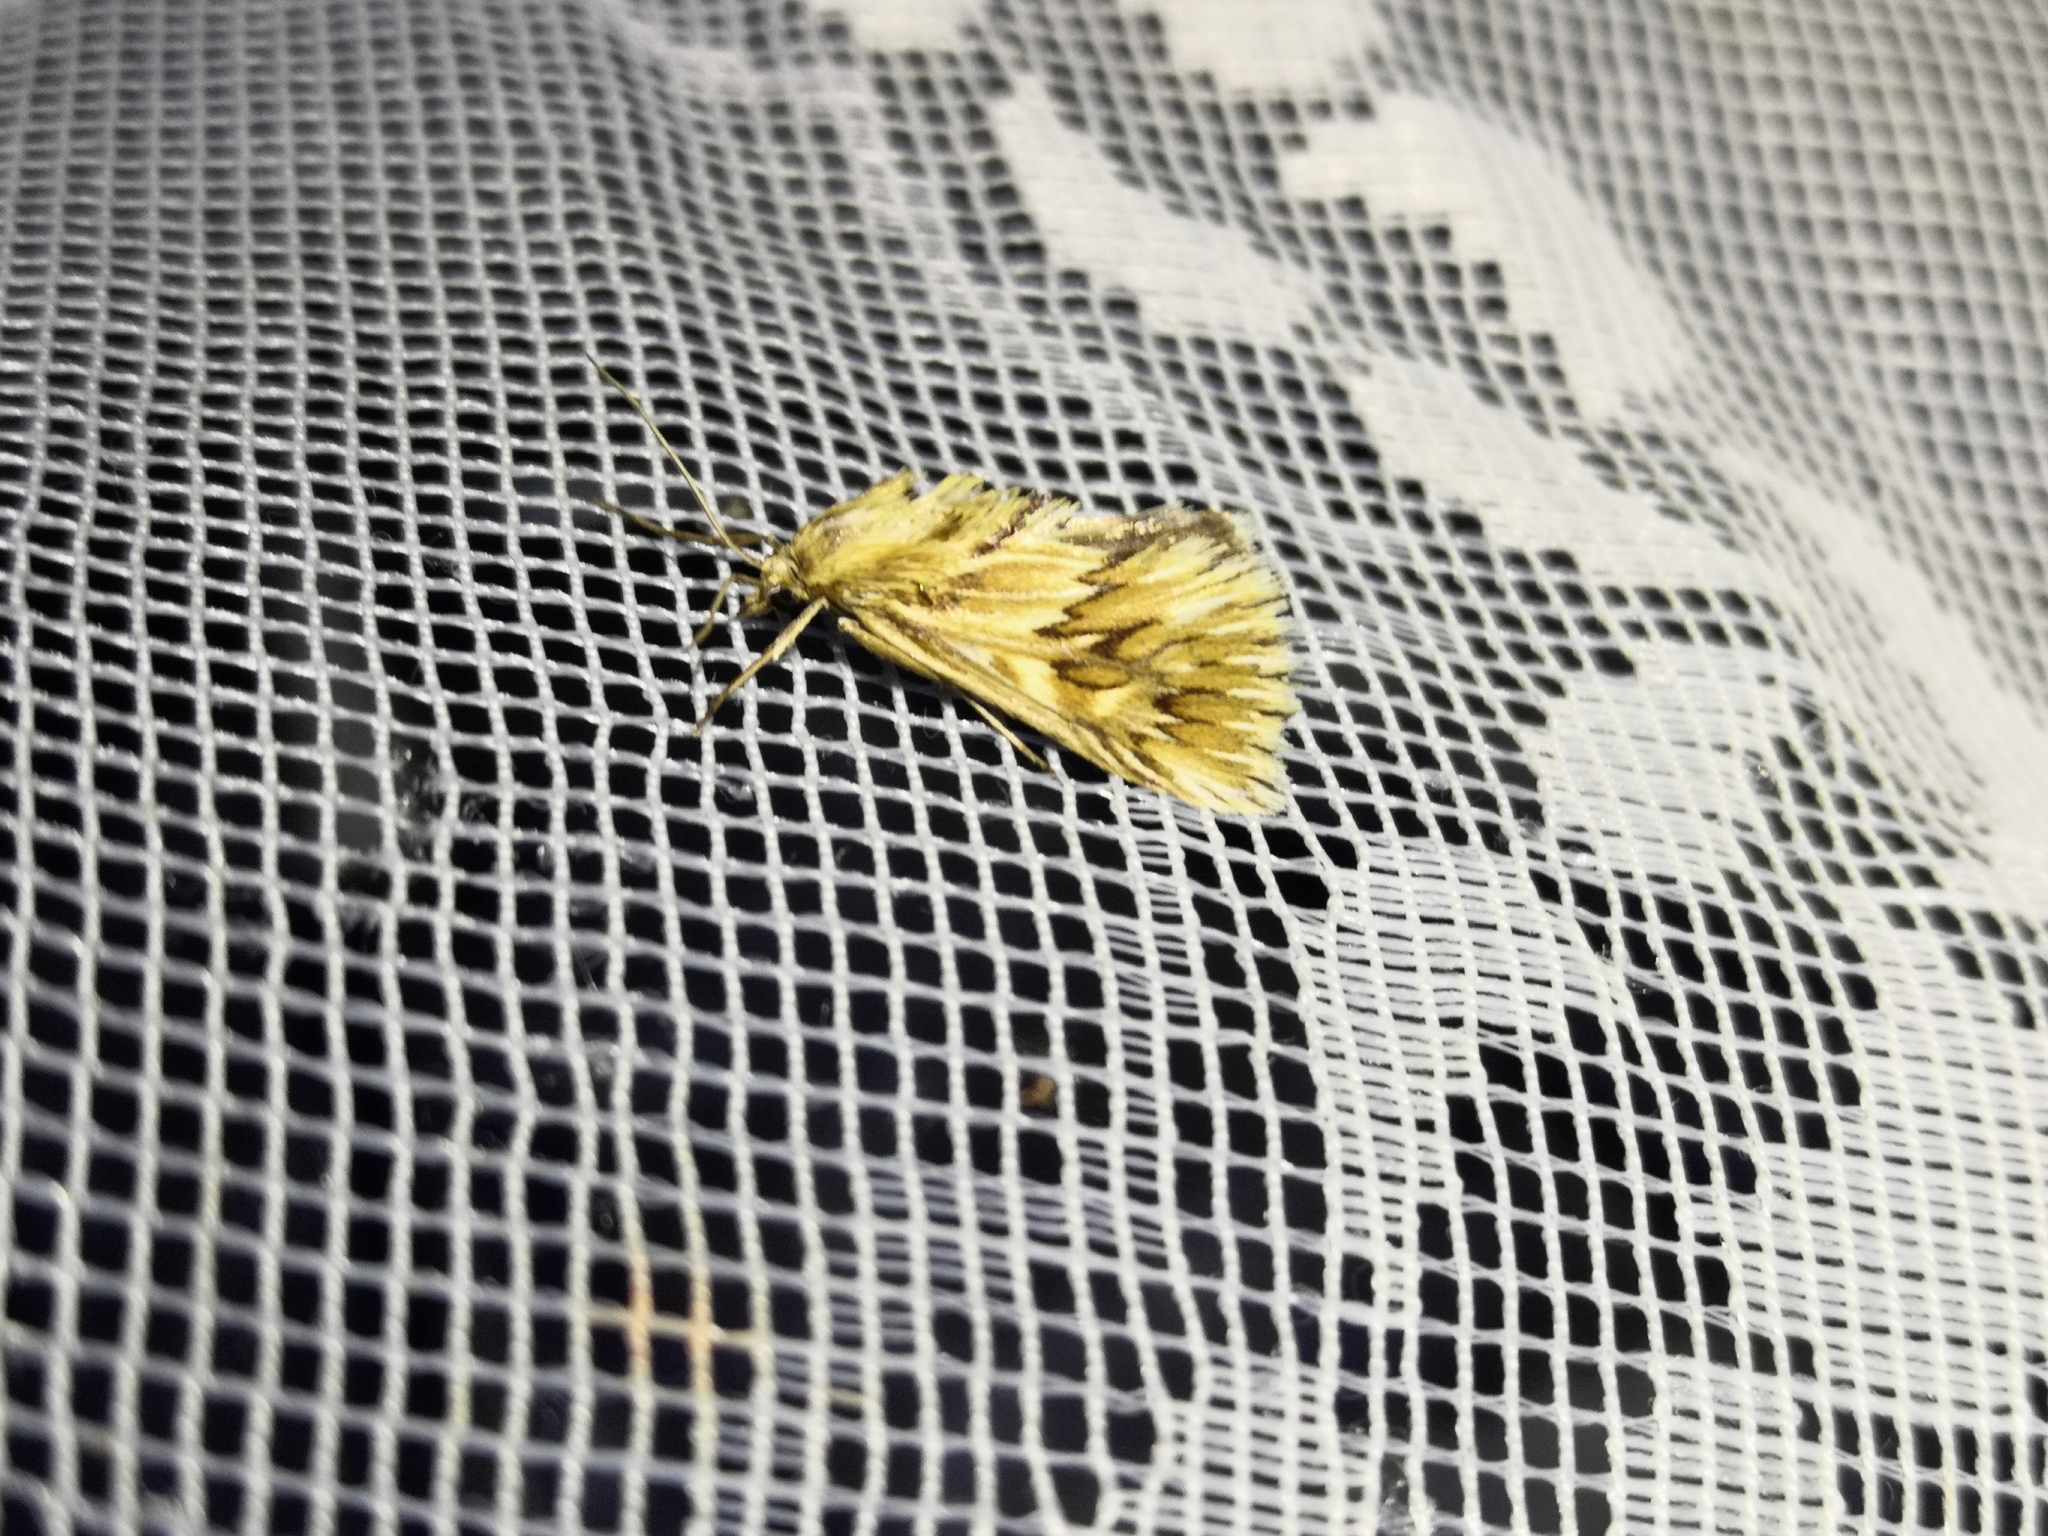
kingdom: Animalia
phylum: Arthropoda
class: Insecta
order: Lepidoptera
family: Crambidae
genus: Cynaeda
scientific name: Cynaeda dentalis
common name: Starry pearl
